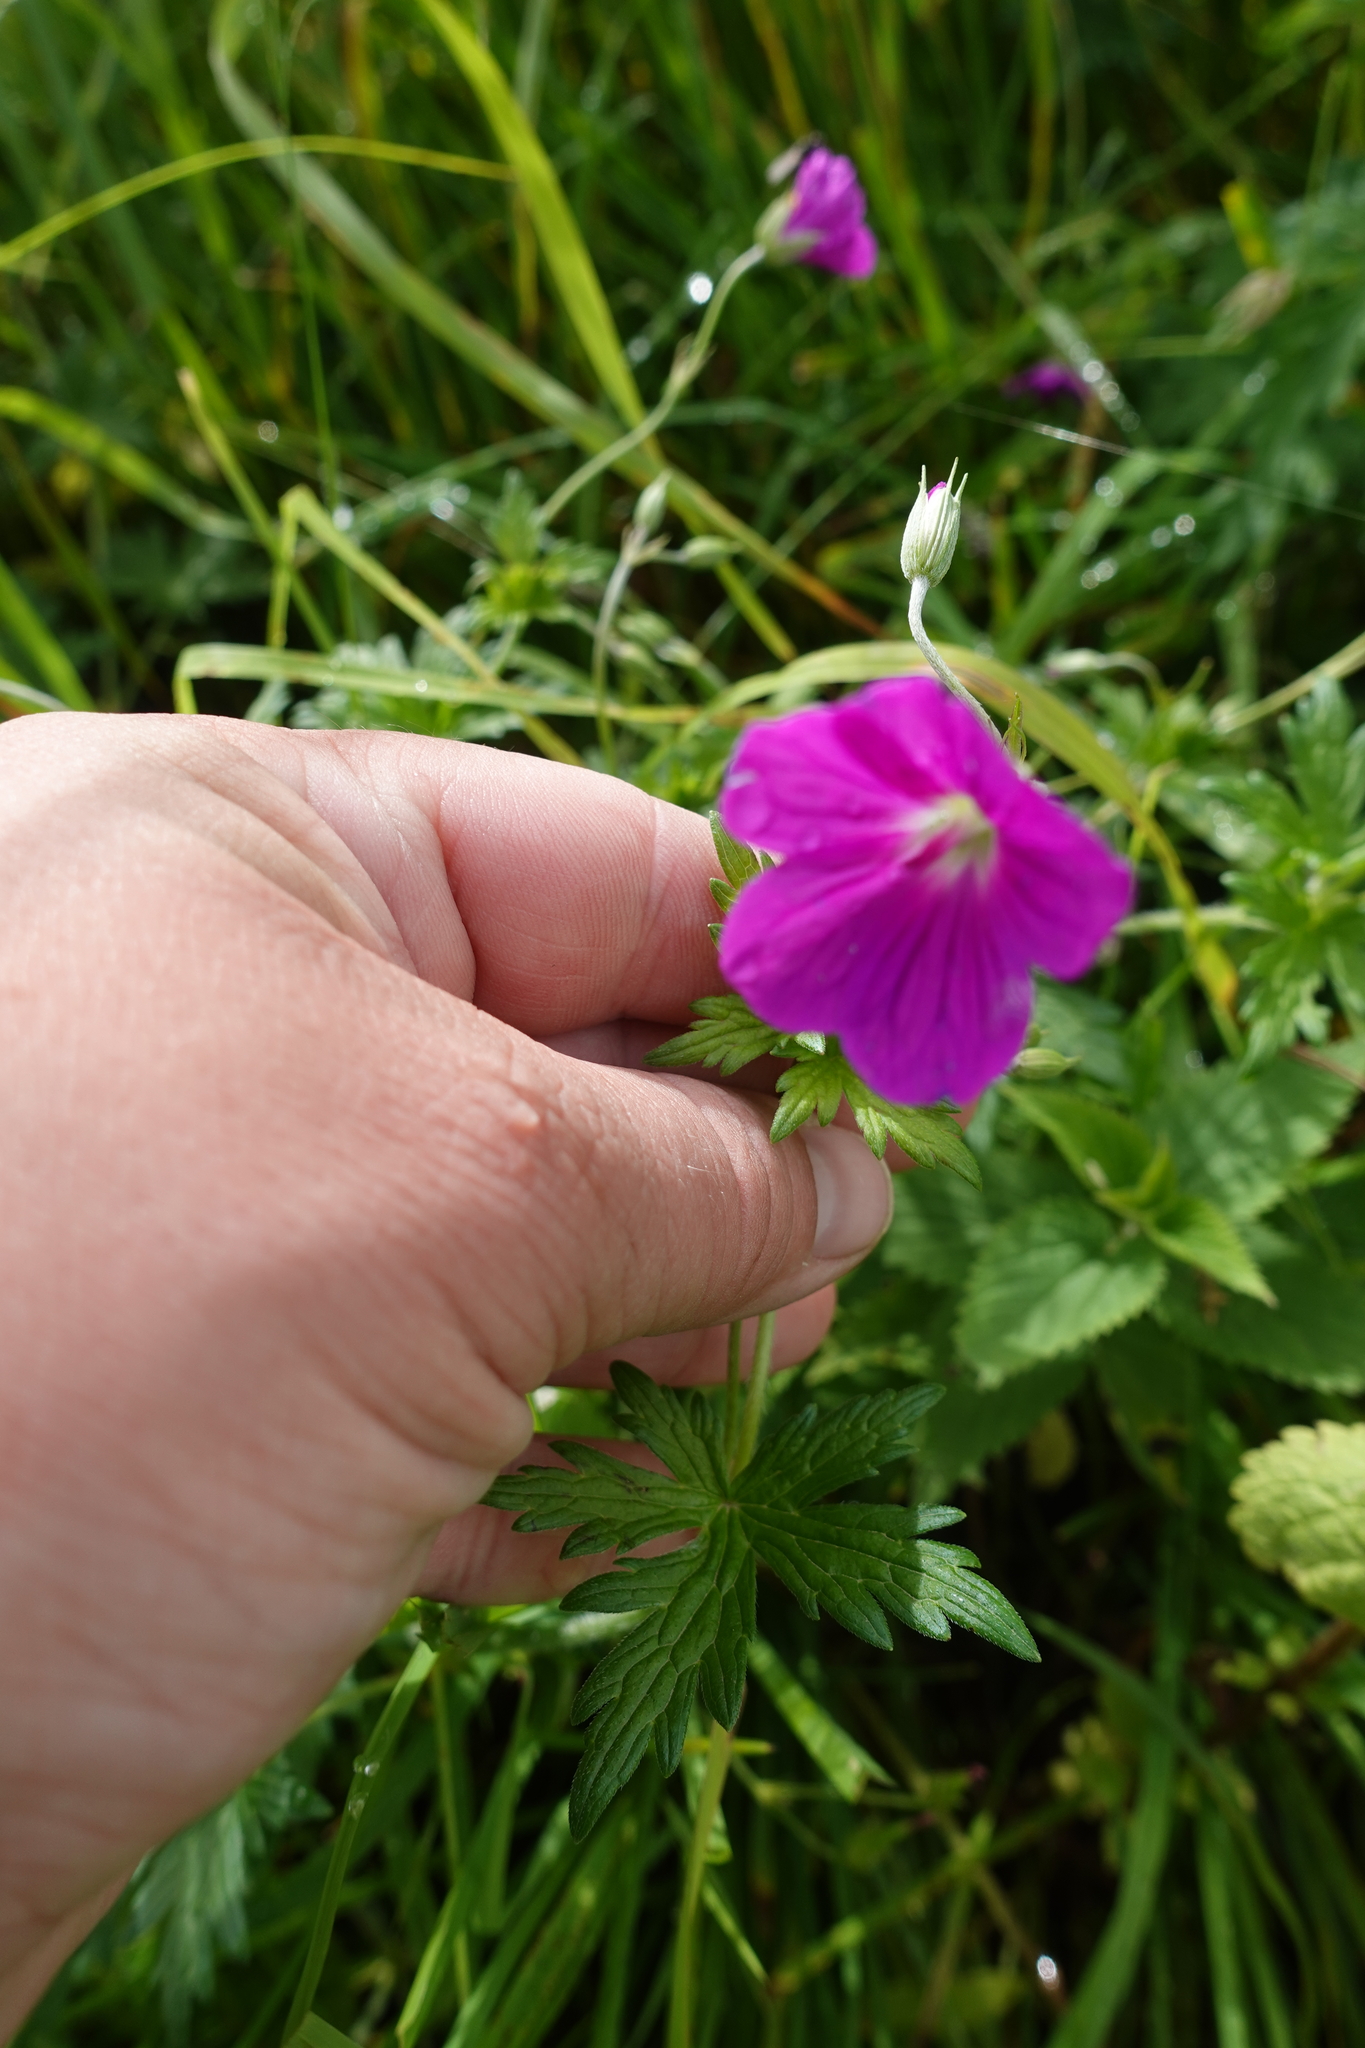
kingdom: Plantae
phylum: Tracheophyta
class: Magnoliopsida
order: Geraniales
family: Geraniaceae
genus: Geranium
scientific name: Geranium palustre
